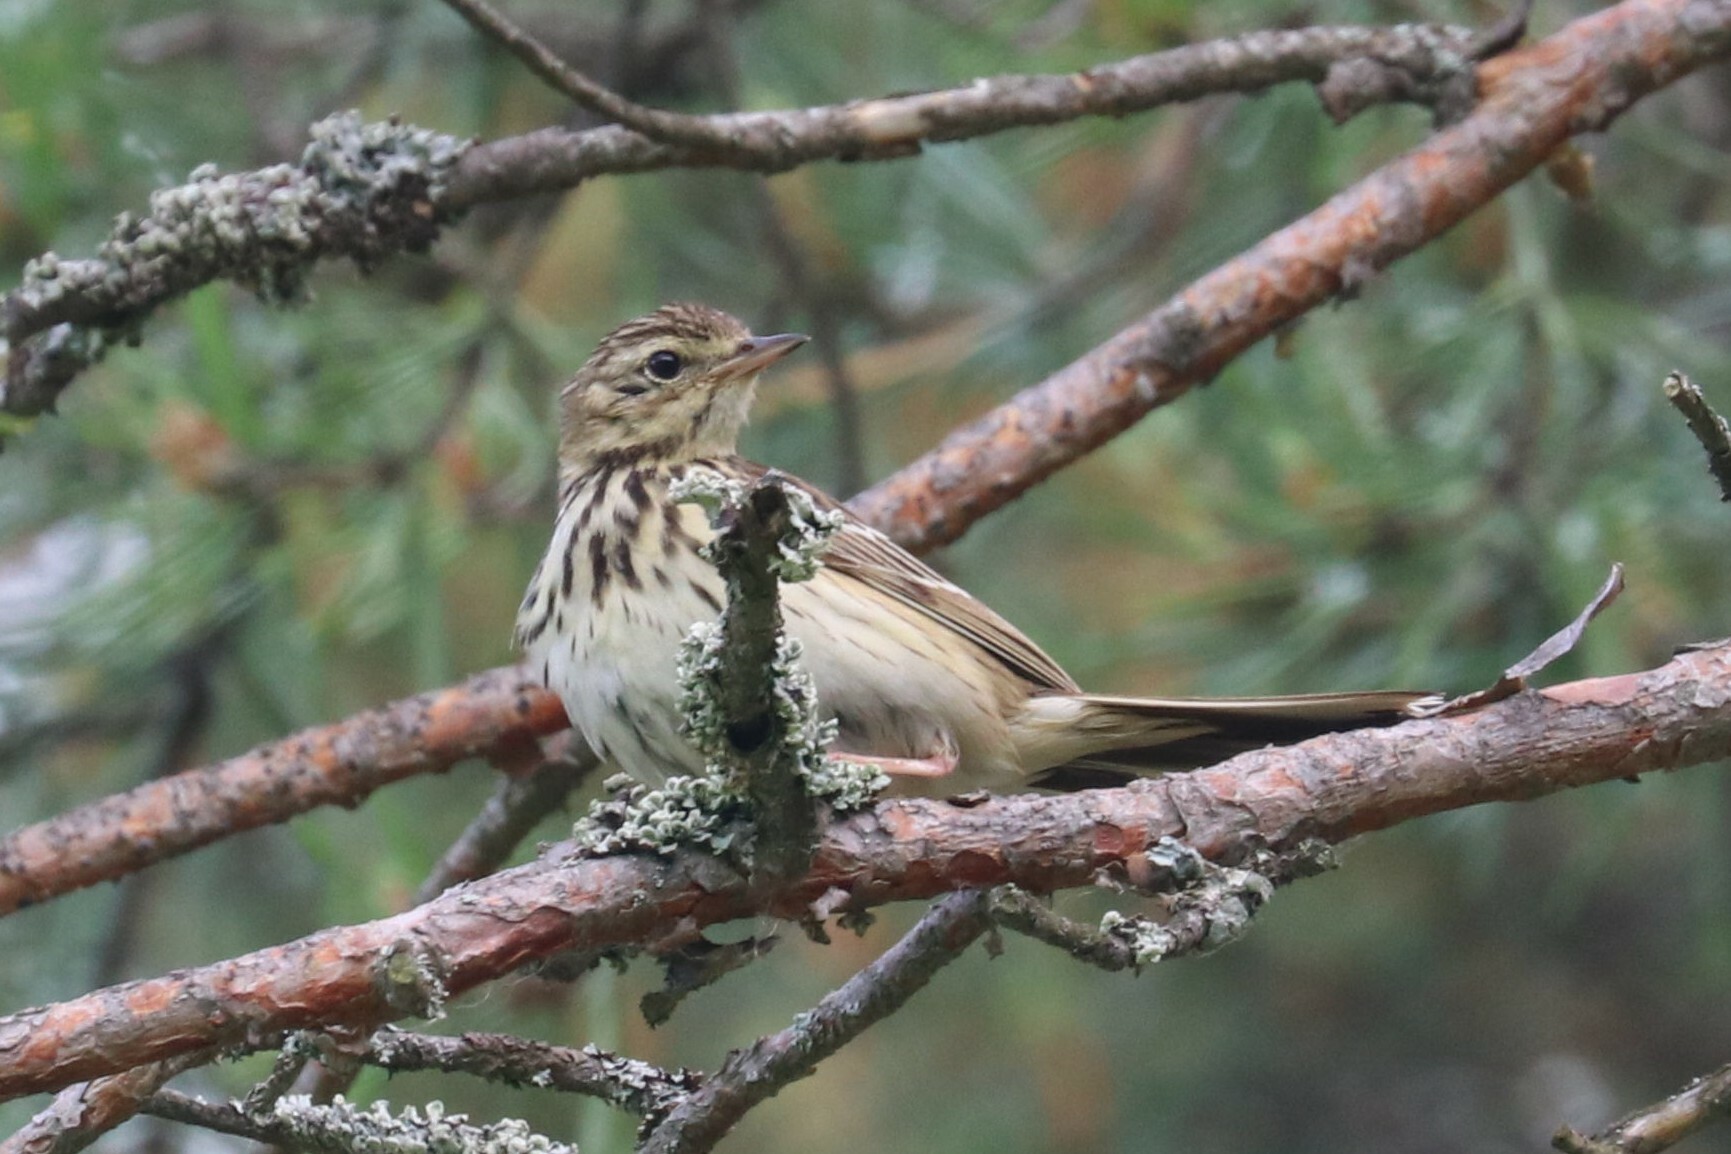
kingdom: Animalia
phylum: Chordata
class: Aves
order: Passeriformes
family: Motacillidae
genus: Anthus
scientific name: Anthus trivialis
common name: Tree pipit
